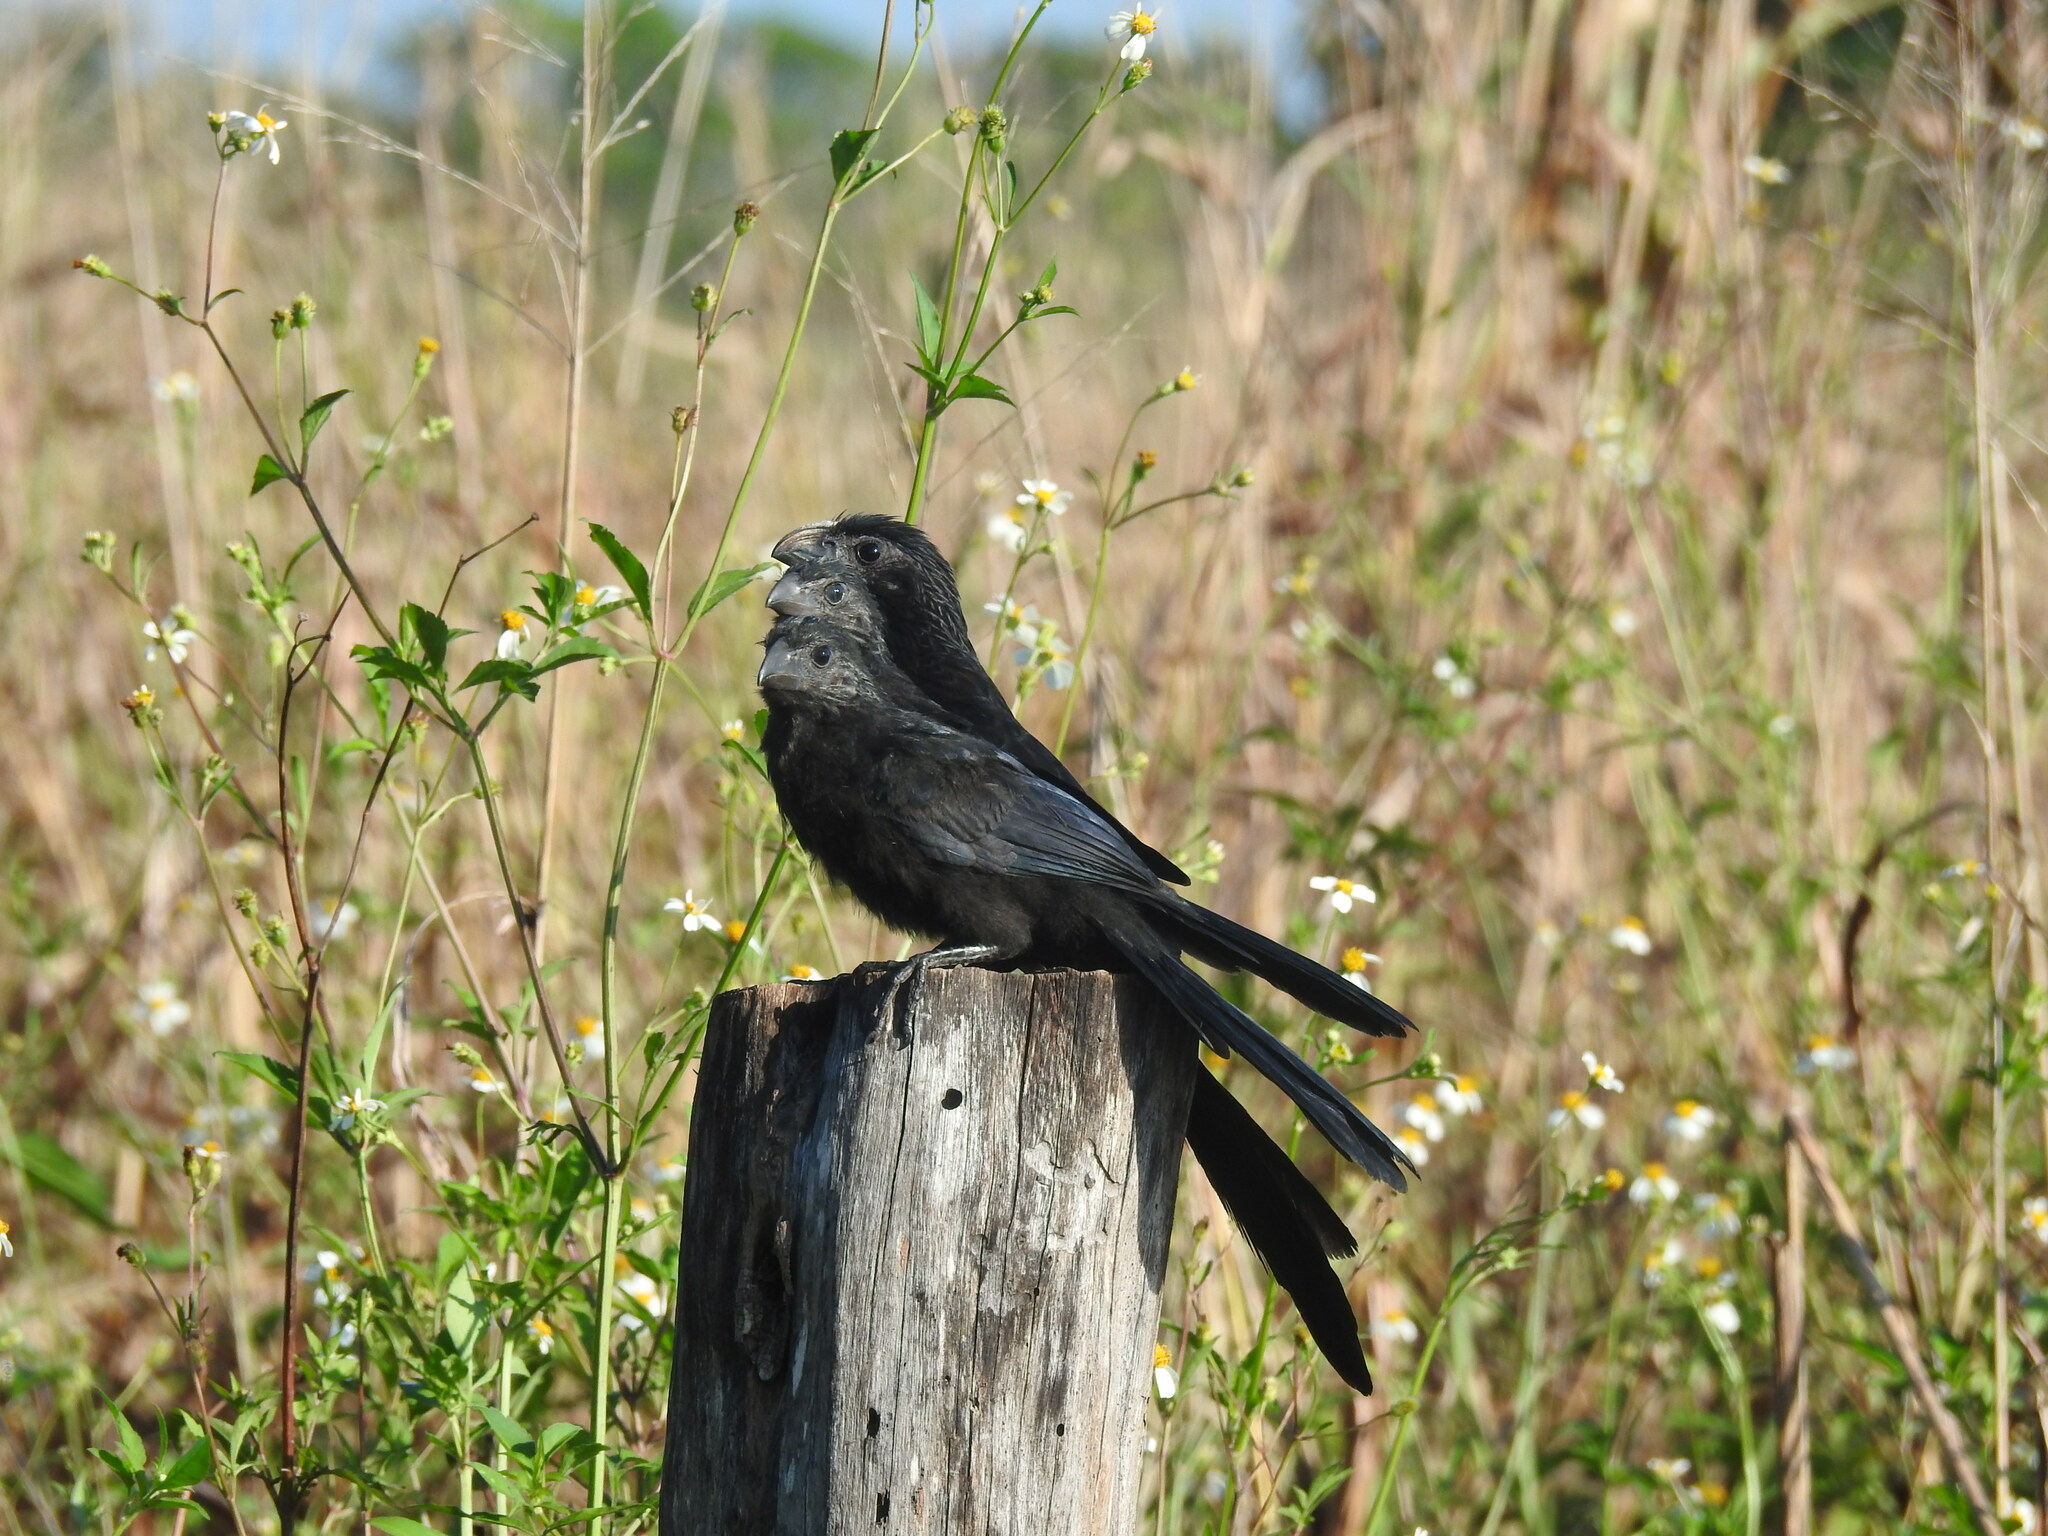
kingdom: Animalia
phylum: Chordata
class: Aves
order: Cuculiformes
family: Cuculidae
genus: Crotophaga
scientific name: Crotophaga sulcirostris
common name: Groove-billed ani
